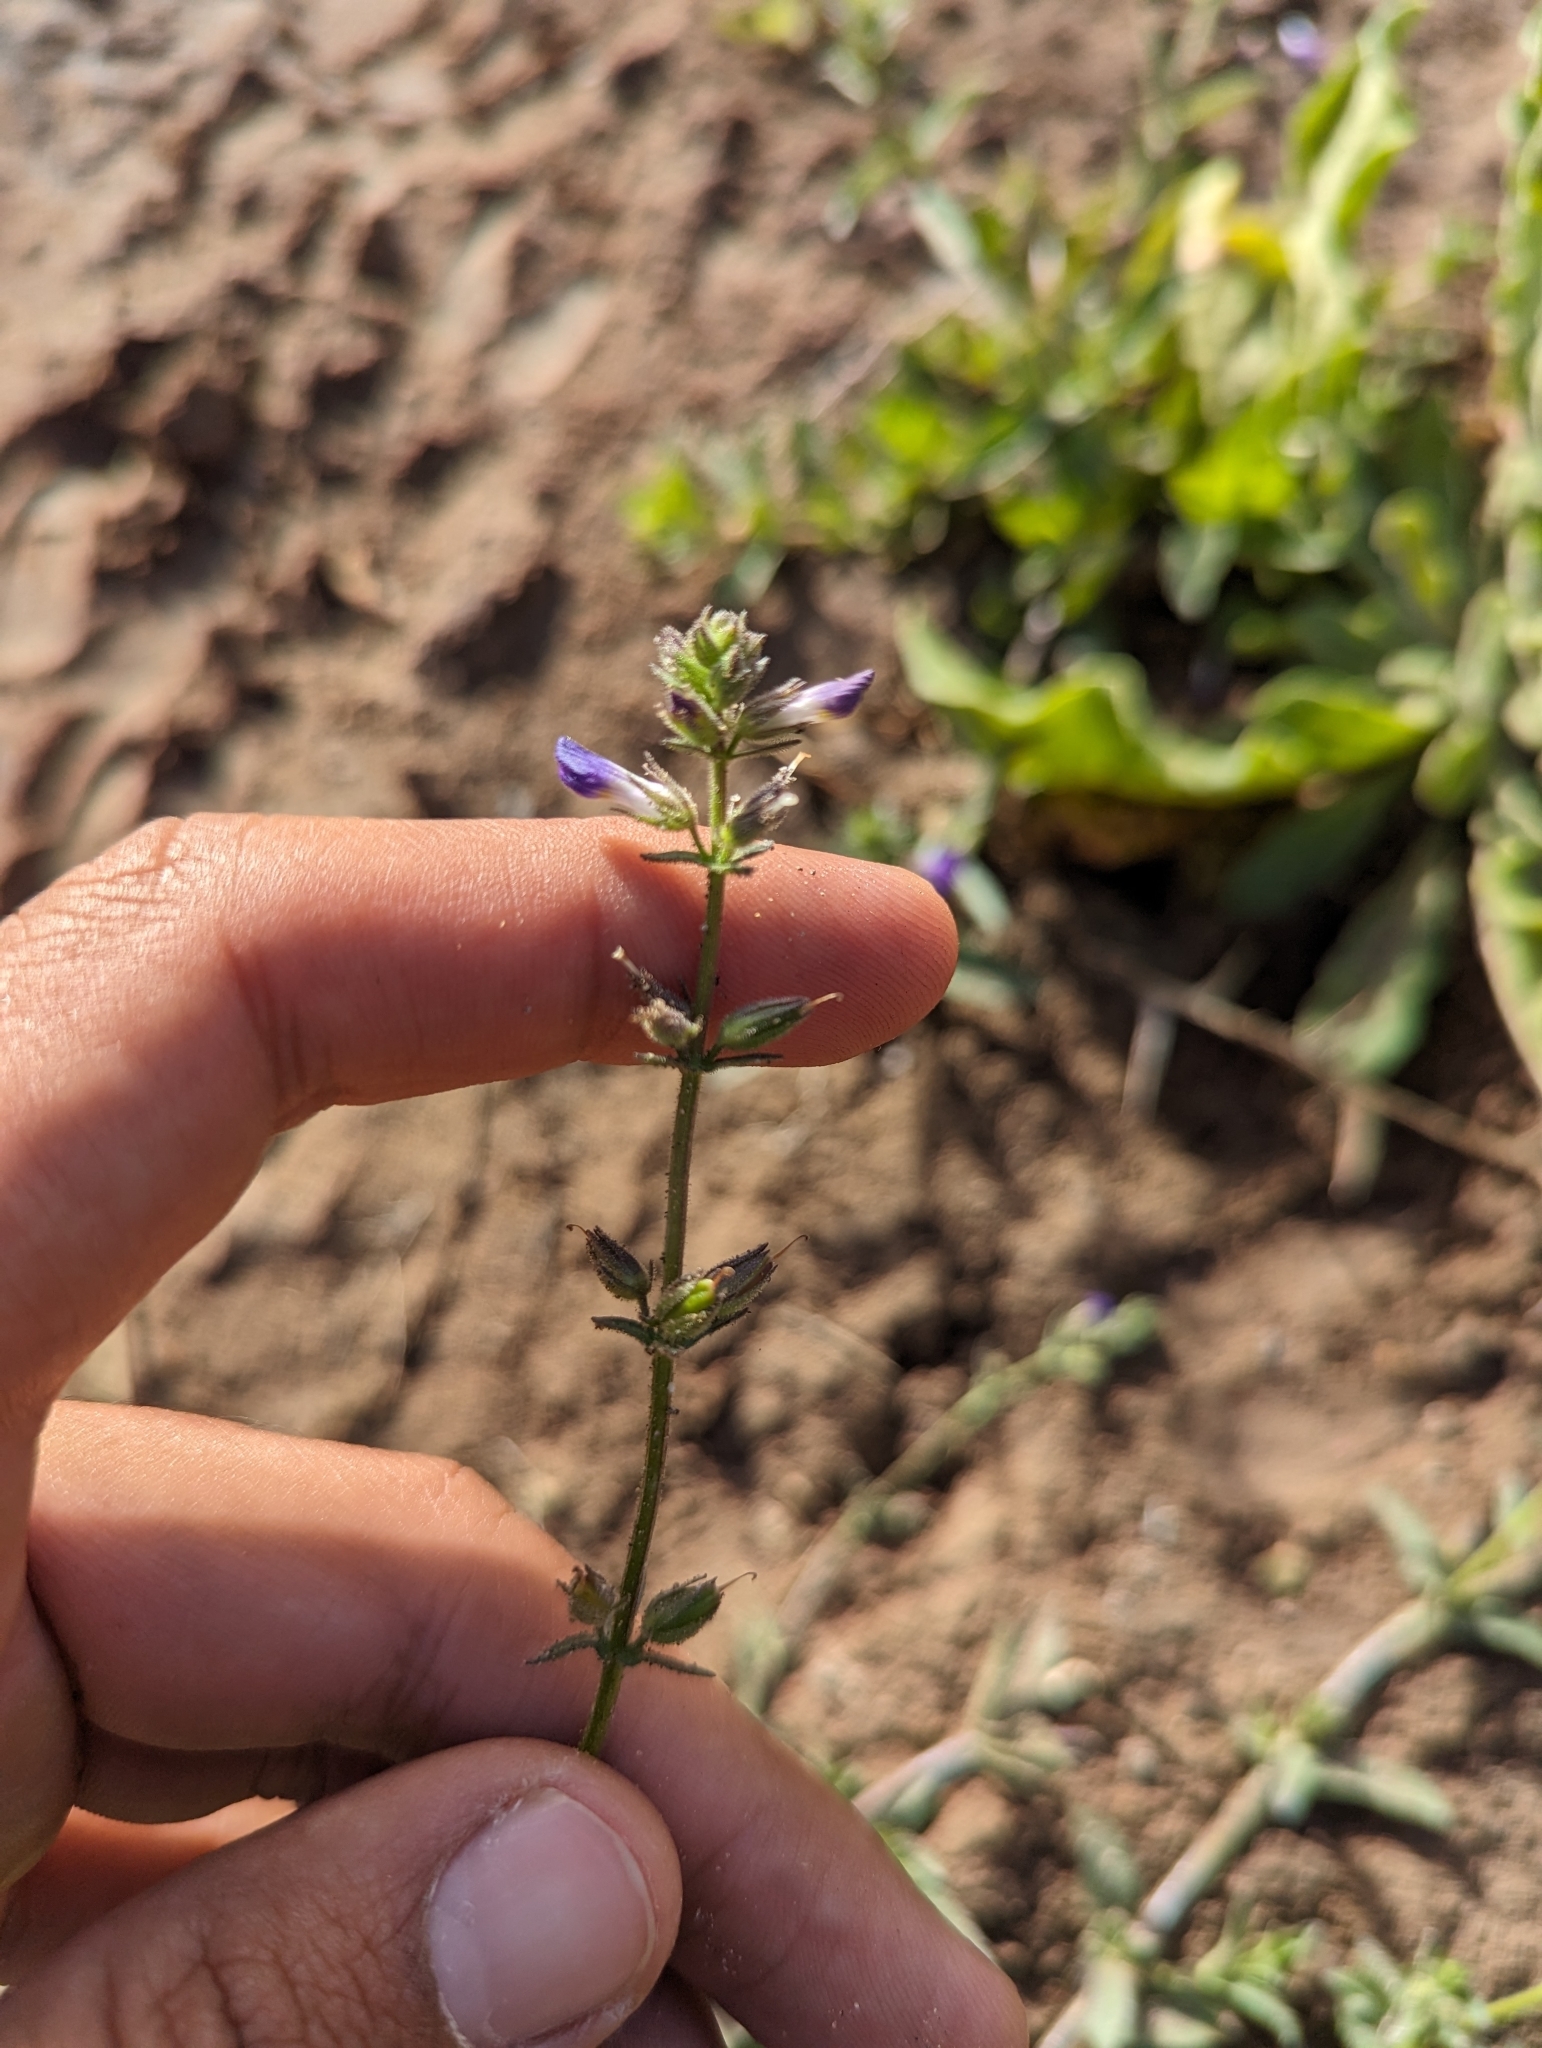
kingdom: Plantae
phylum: Tracheophyta
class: Magnoliopsida
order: Lamiales
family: Plantaginaceae
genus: Stemodia
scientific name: Stemodia durantifolia
